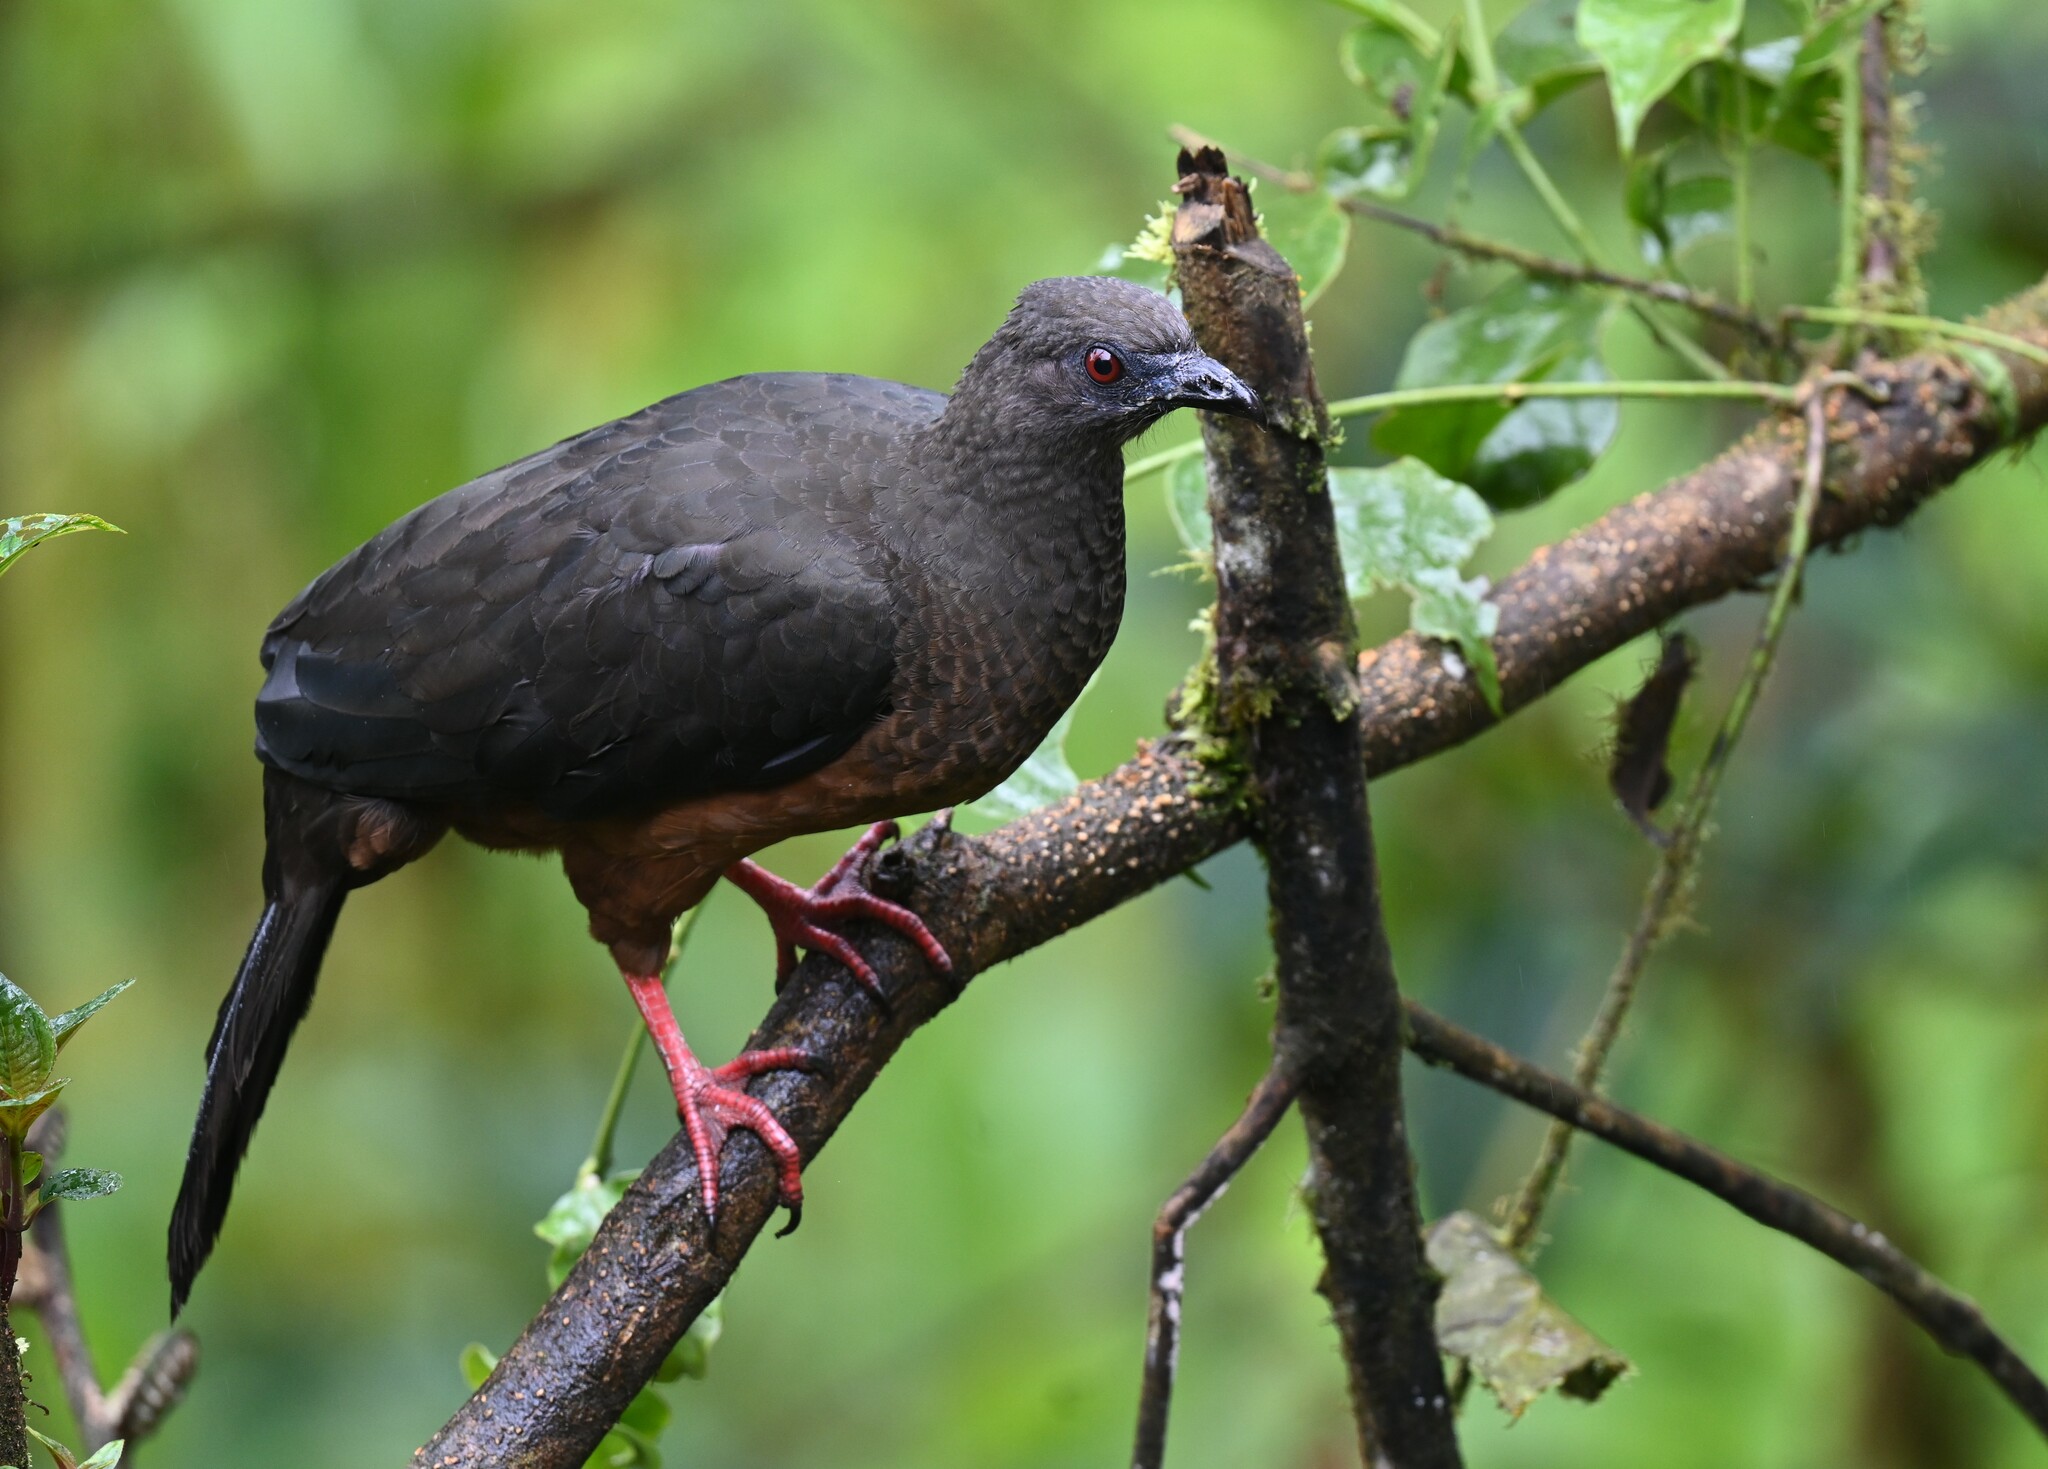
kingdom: Animalia
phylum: Chordata
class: Aves
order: Galliformes
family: Cracidae
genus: Chamaepetes
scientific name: Chamaepetes goudotii
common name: Sickle-winged guan
